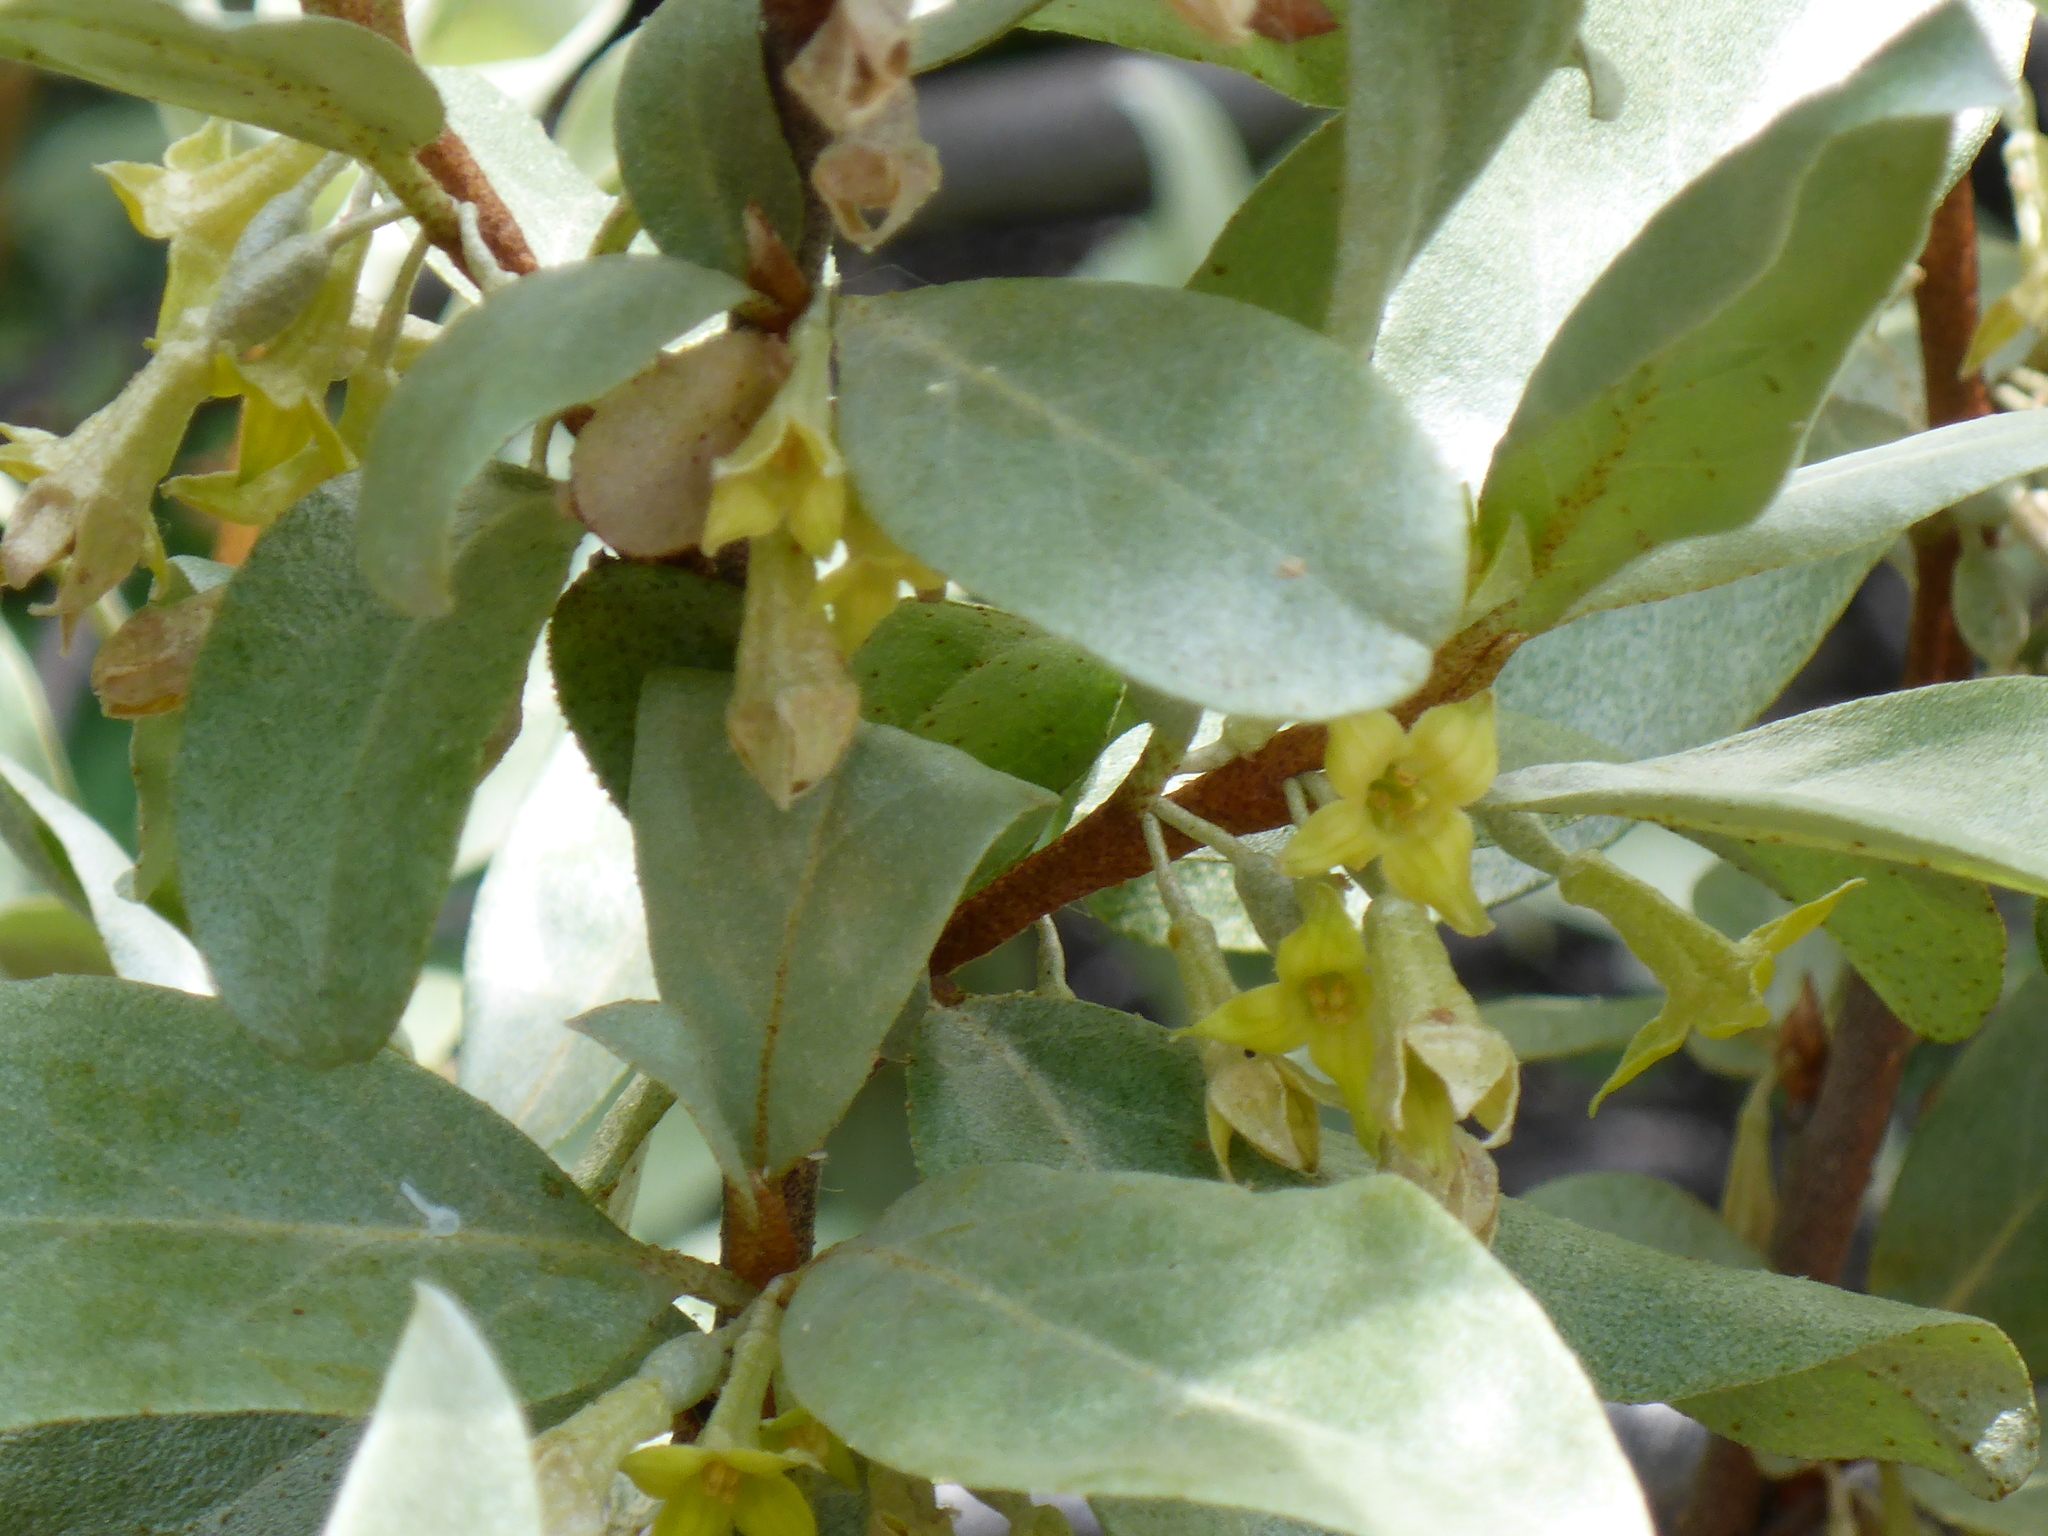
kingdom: Plantae
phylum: Tracheophyta
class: Magnoliopsida
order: Rosales
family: Elaeagnaceae
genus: Elaeagnus
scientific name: Elaeagnus commutata
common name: Silverberry
